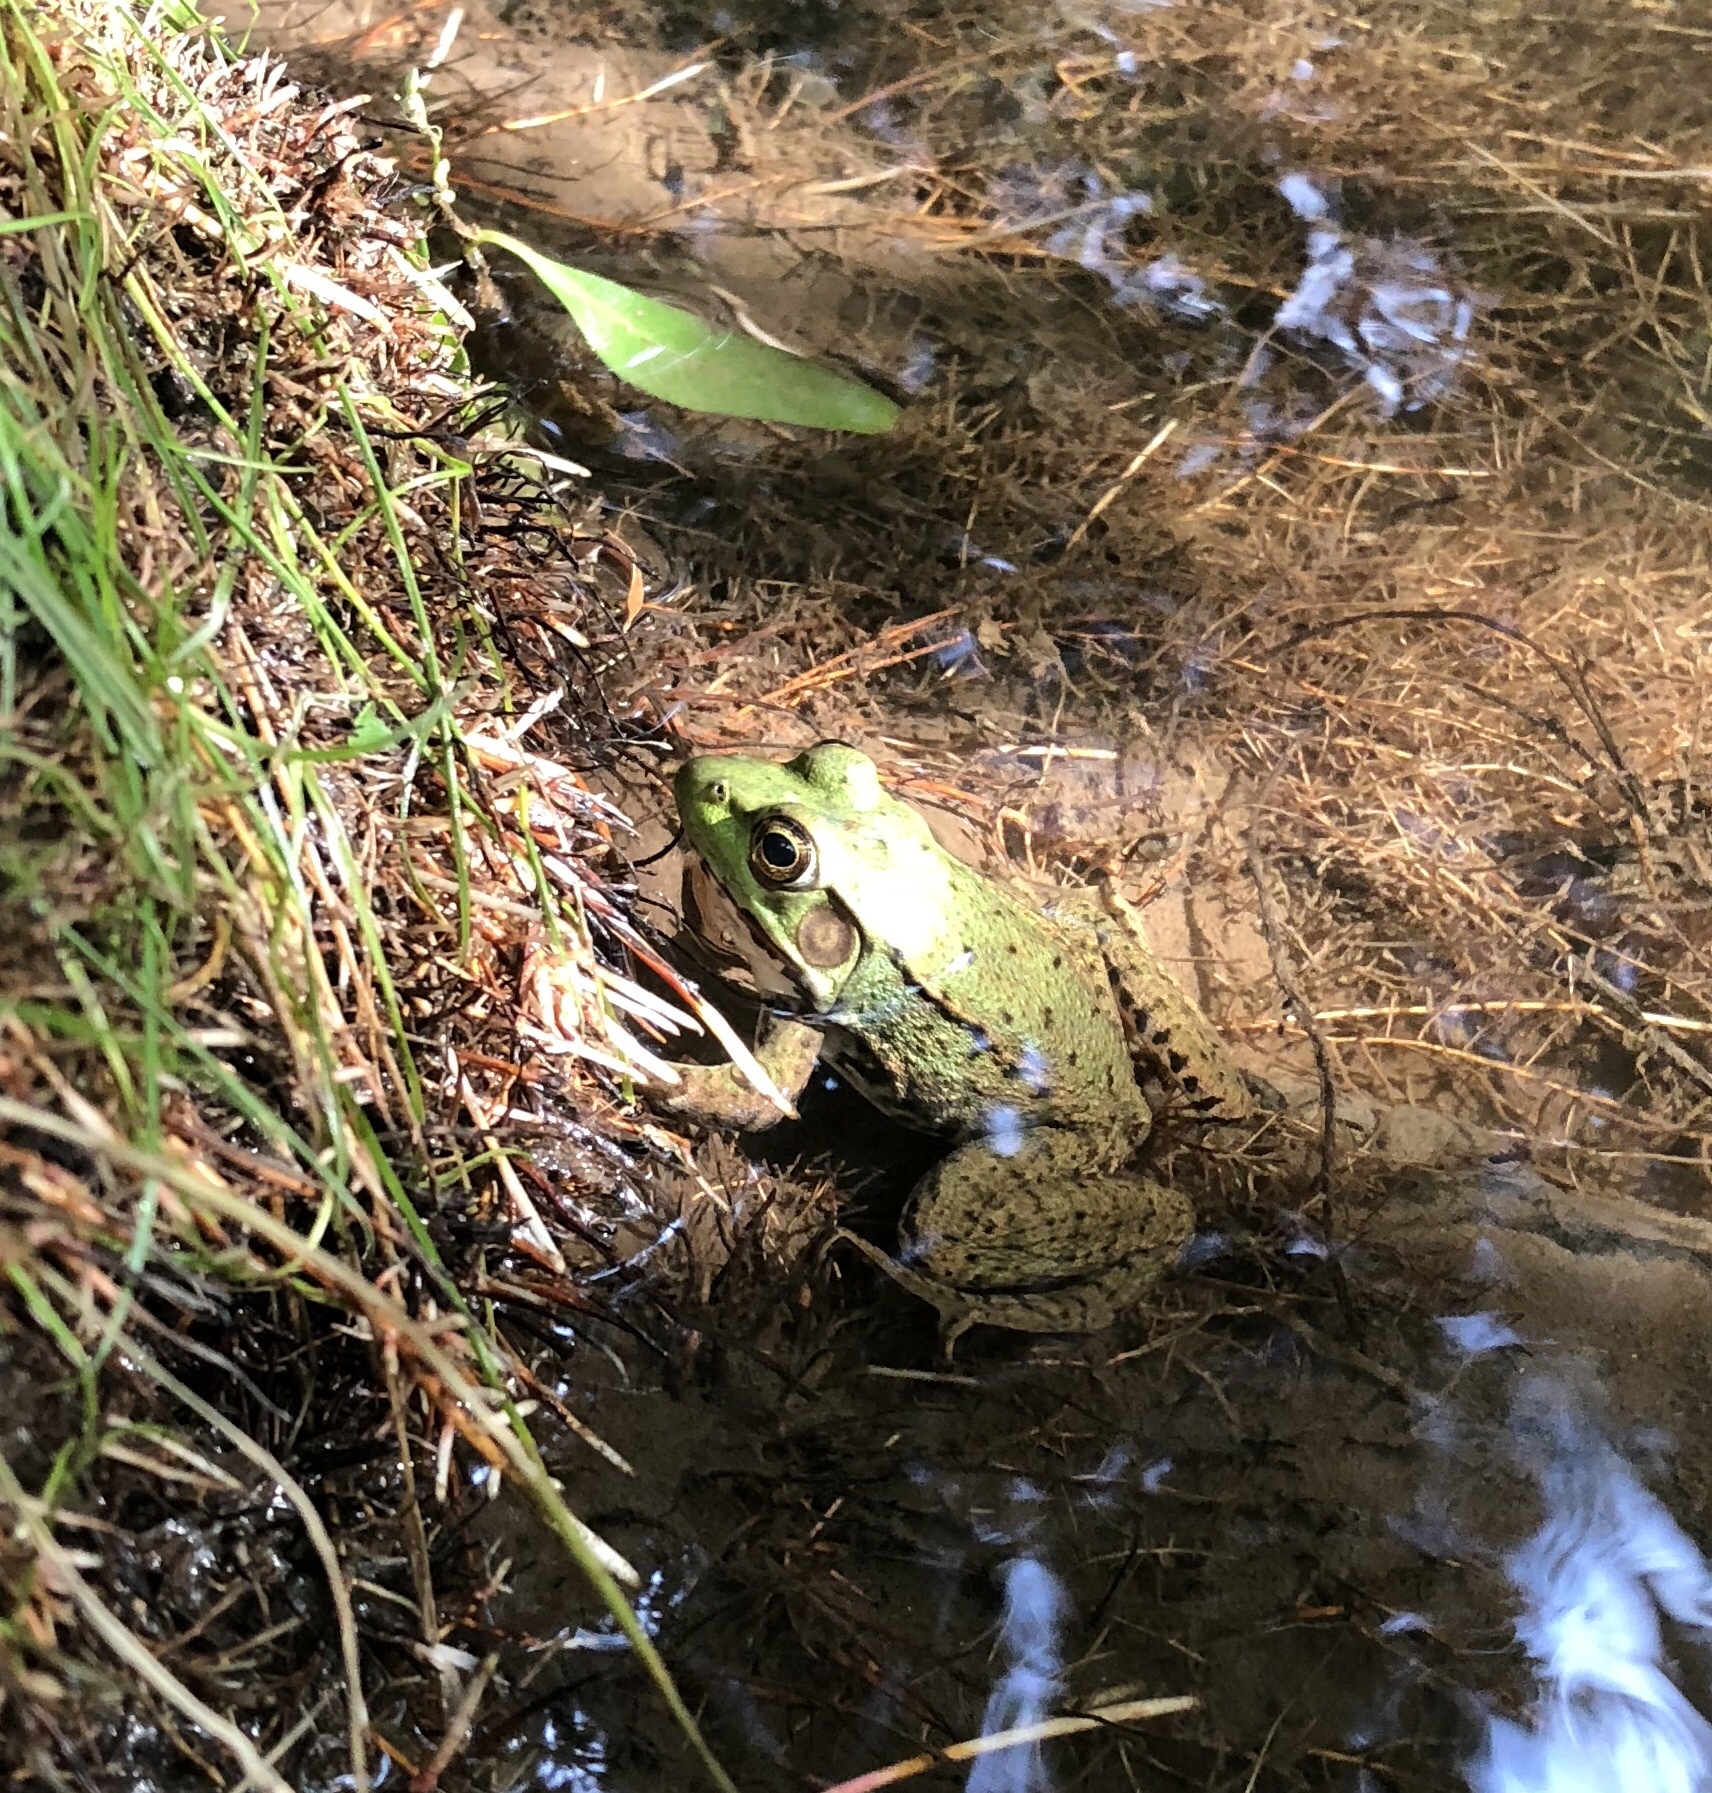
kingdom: Animalia
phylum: Chordata
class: Amphibia
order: Anura
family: Ranidae
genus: Lithobates
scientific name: Lithobates clamitans
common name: Green frog
